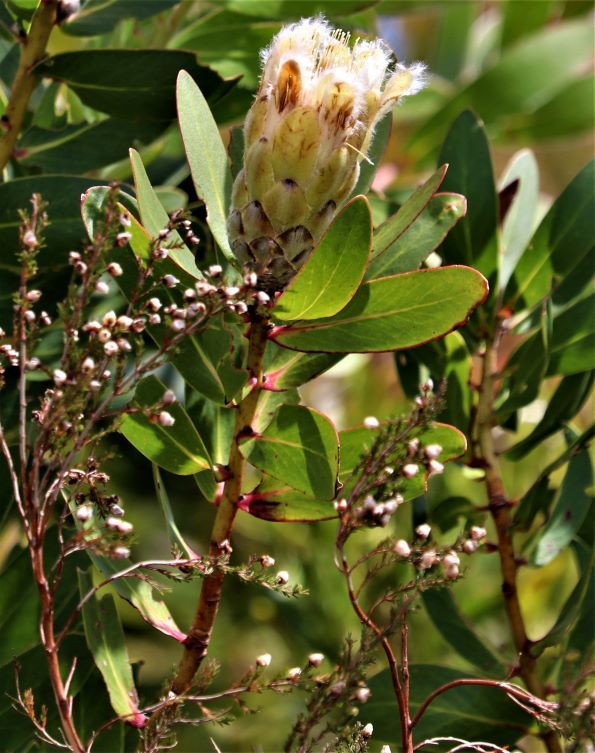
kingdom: Plantae
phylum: Tracheophyta
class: Magnoliopsida
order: Proteales
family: Proteaceae
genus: Protea
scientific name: Protea mundii
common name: Forest sugarbush
